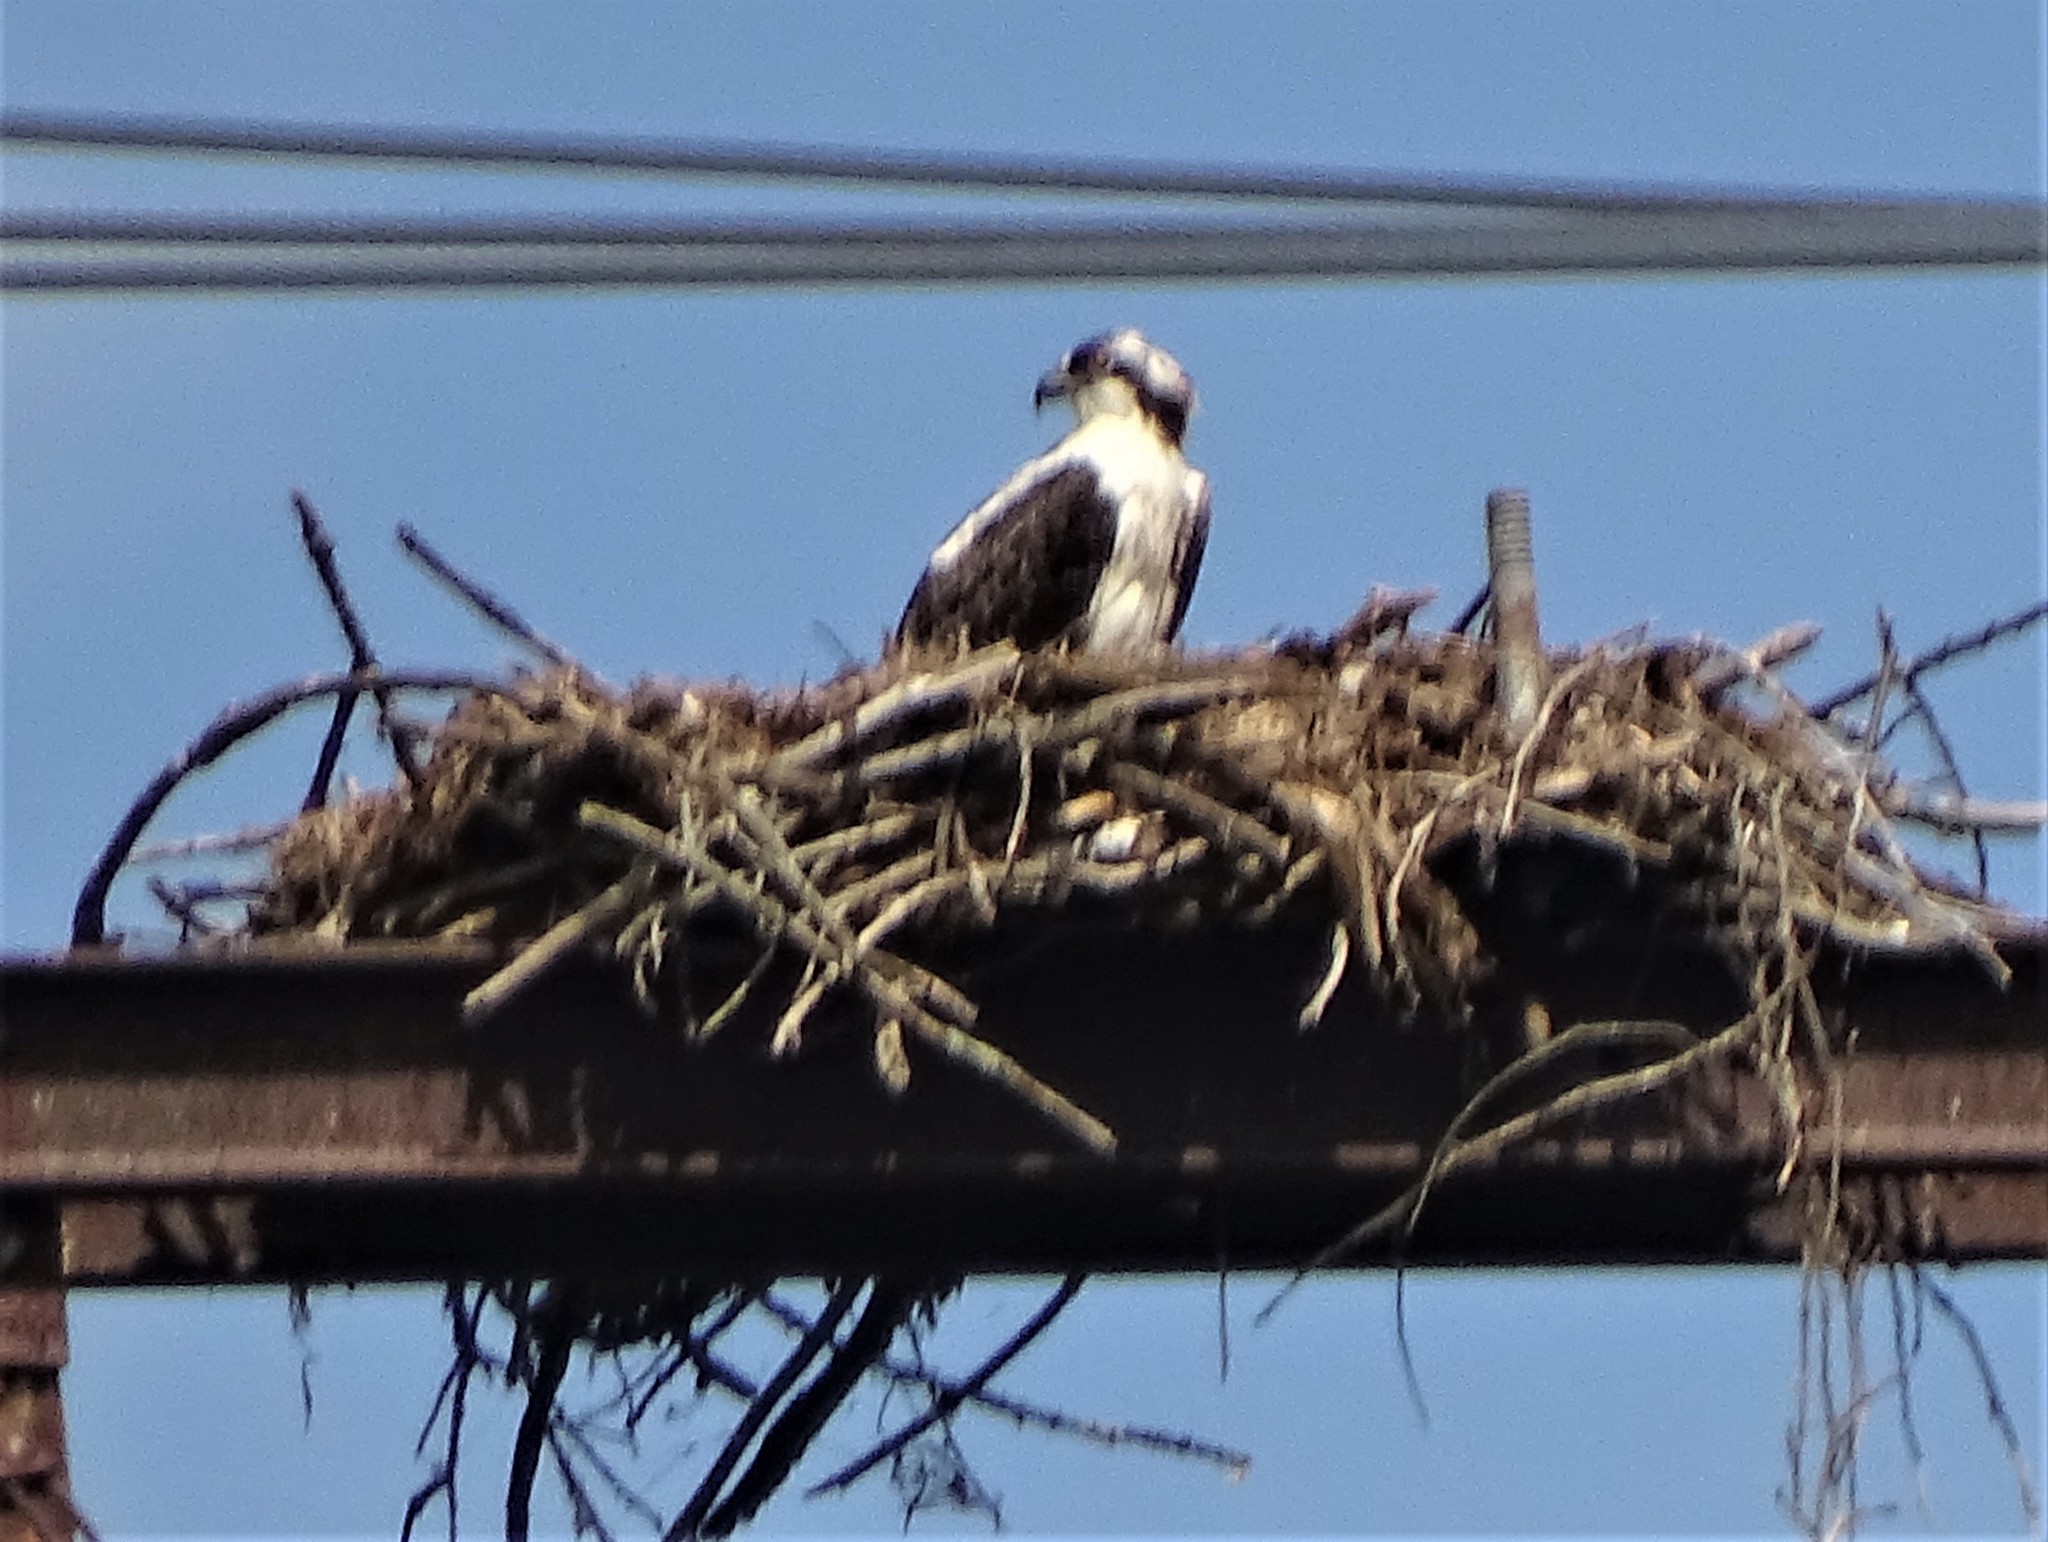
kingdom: Animalia
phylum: Chordata
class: Aves
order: Accipitriformes
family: Pandionidae
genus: Pandion
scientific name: Pandion haliaetus
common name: Osprey
